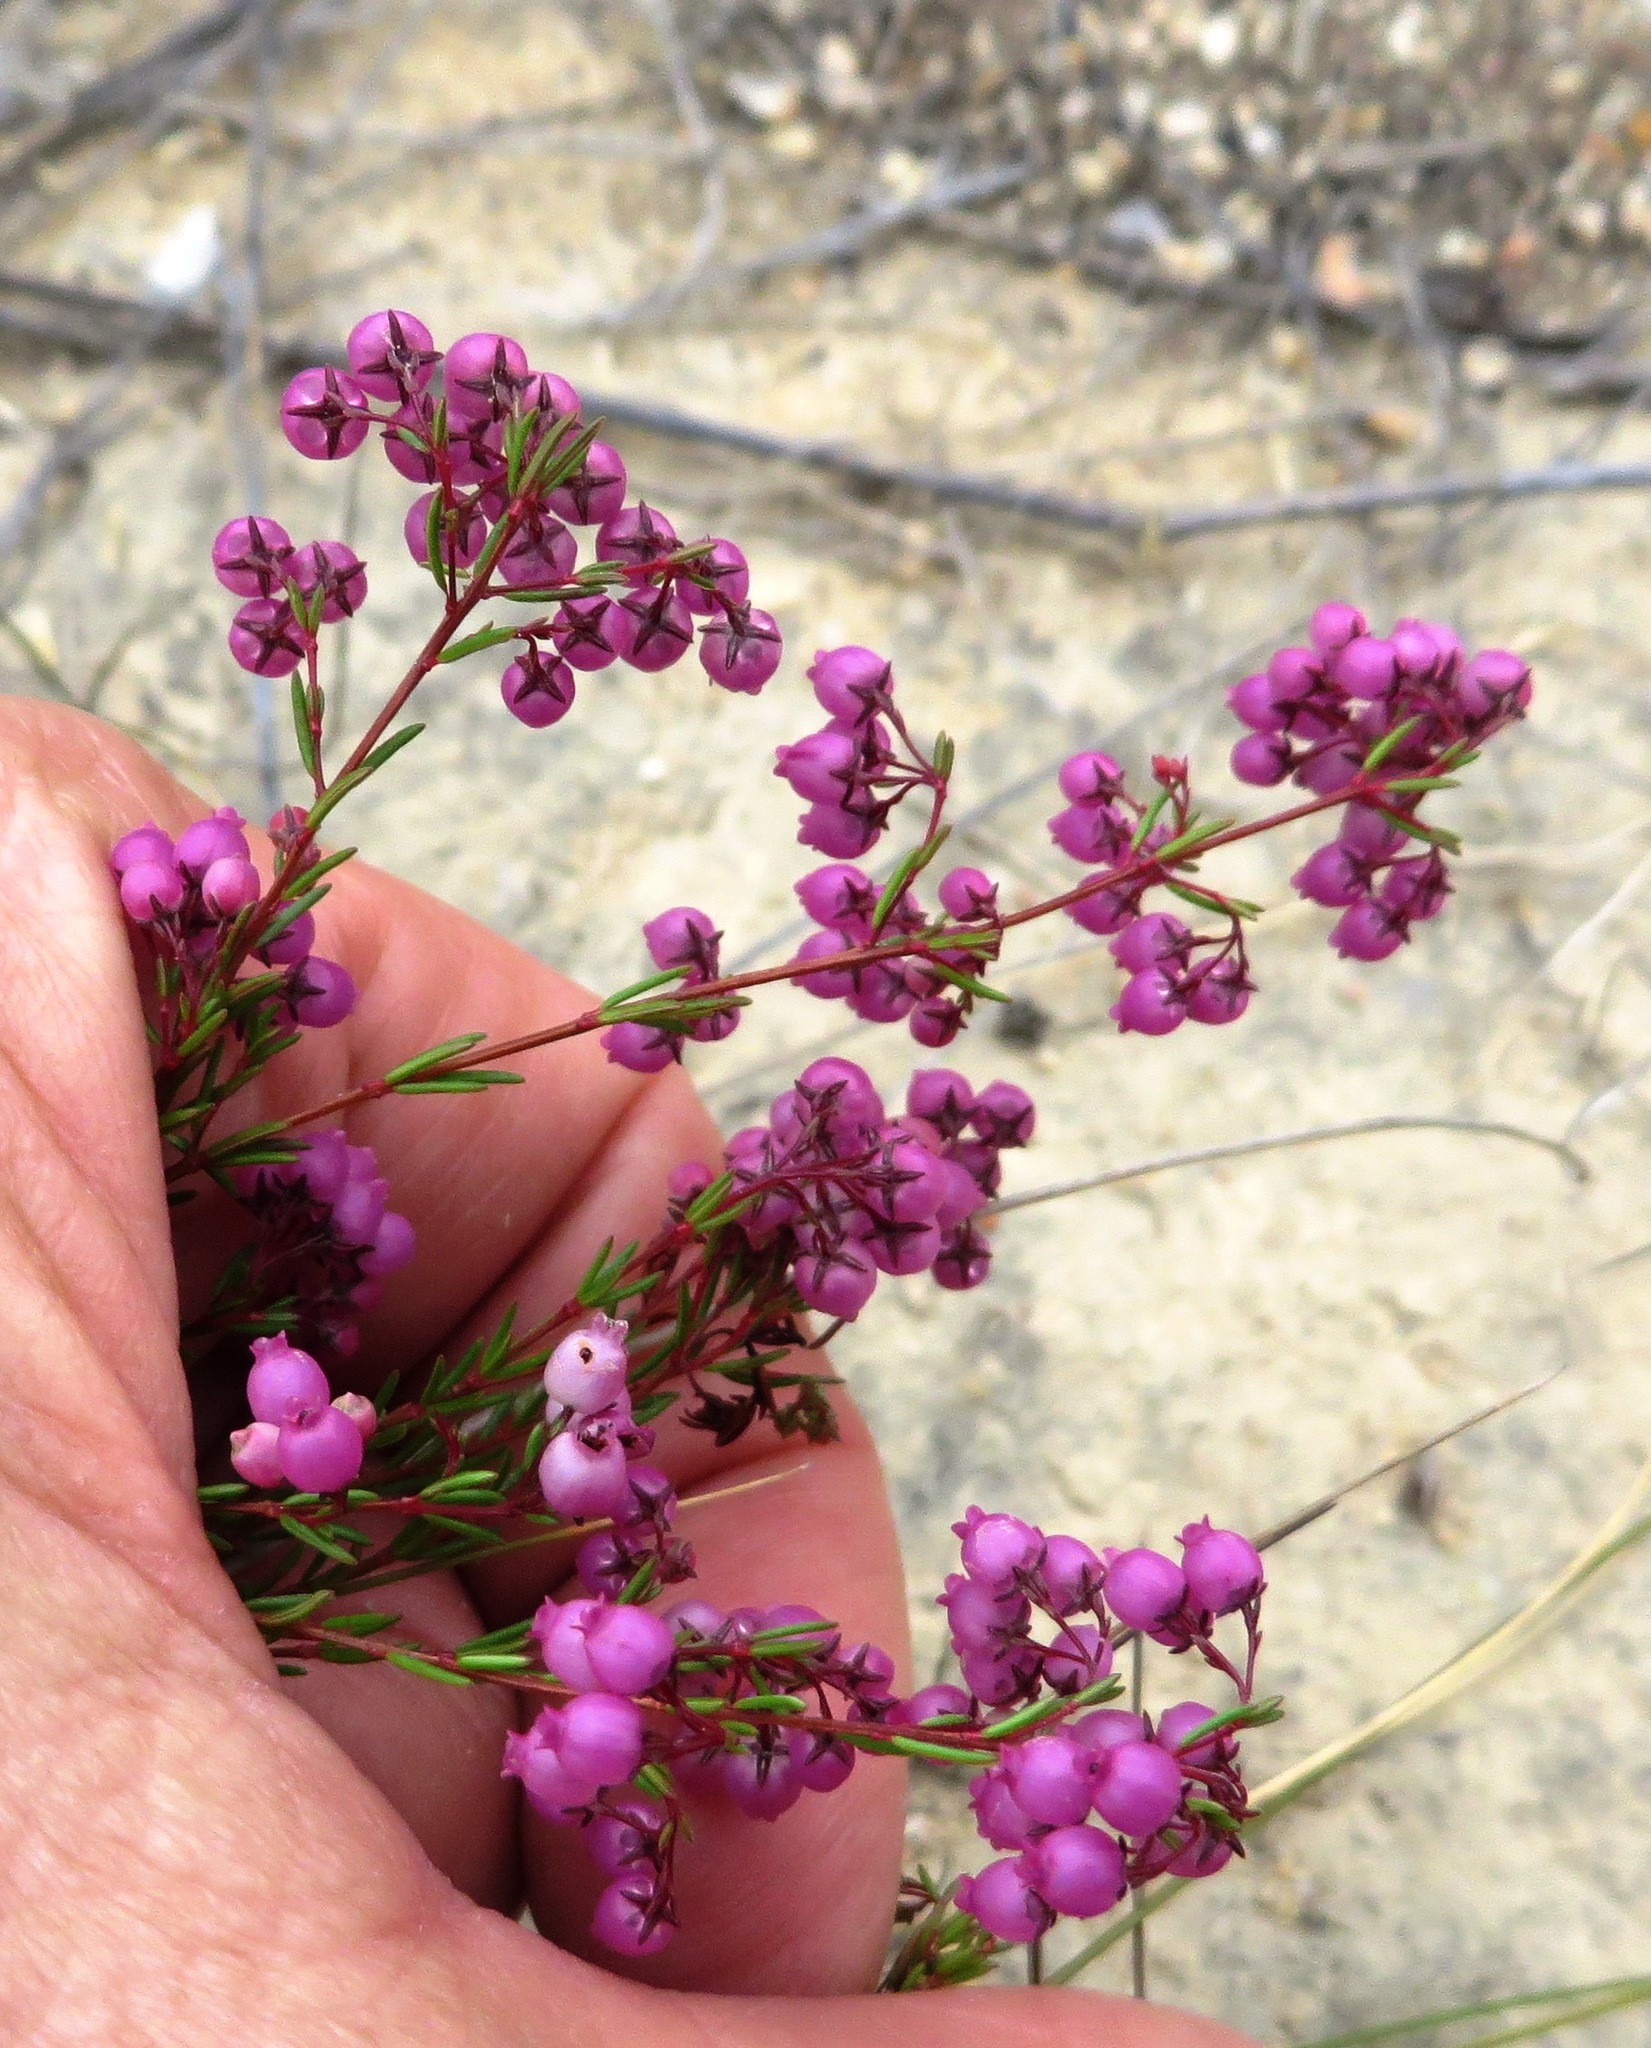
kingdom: Plantae
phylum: Tracheophyta
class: Magnoliopsida
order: Ericales
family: Ericaceae
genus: Erica
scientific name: Erica multumbellifera
